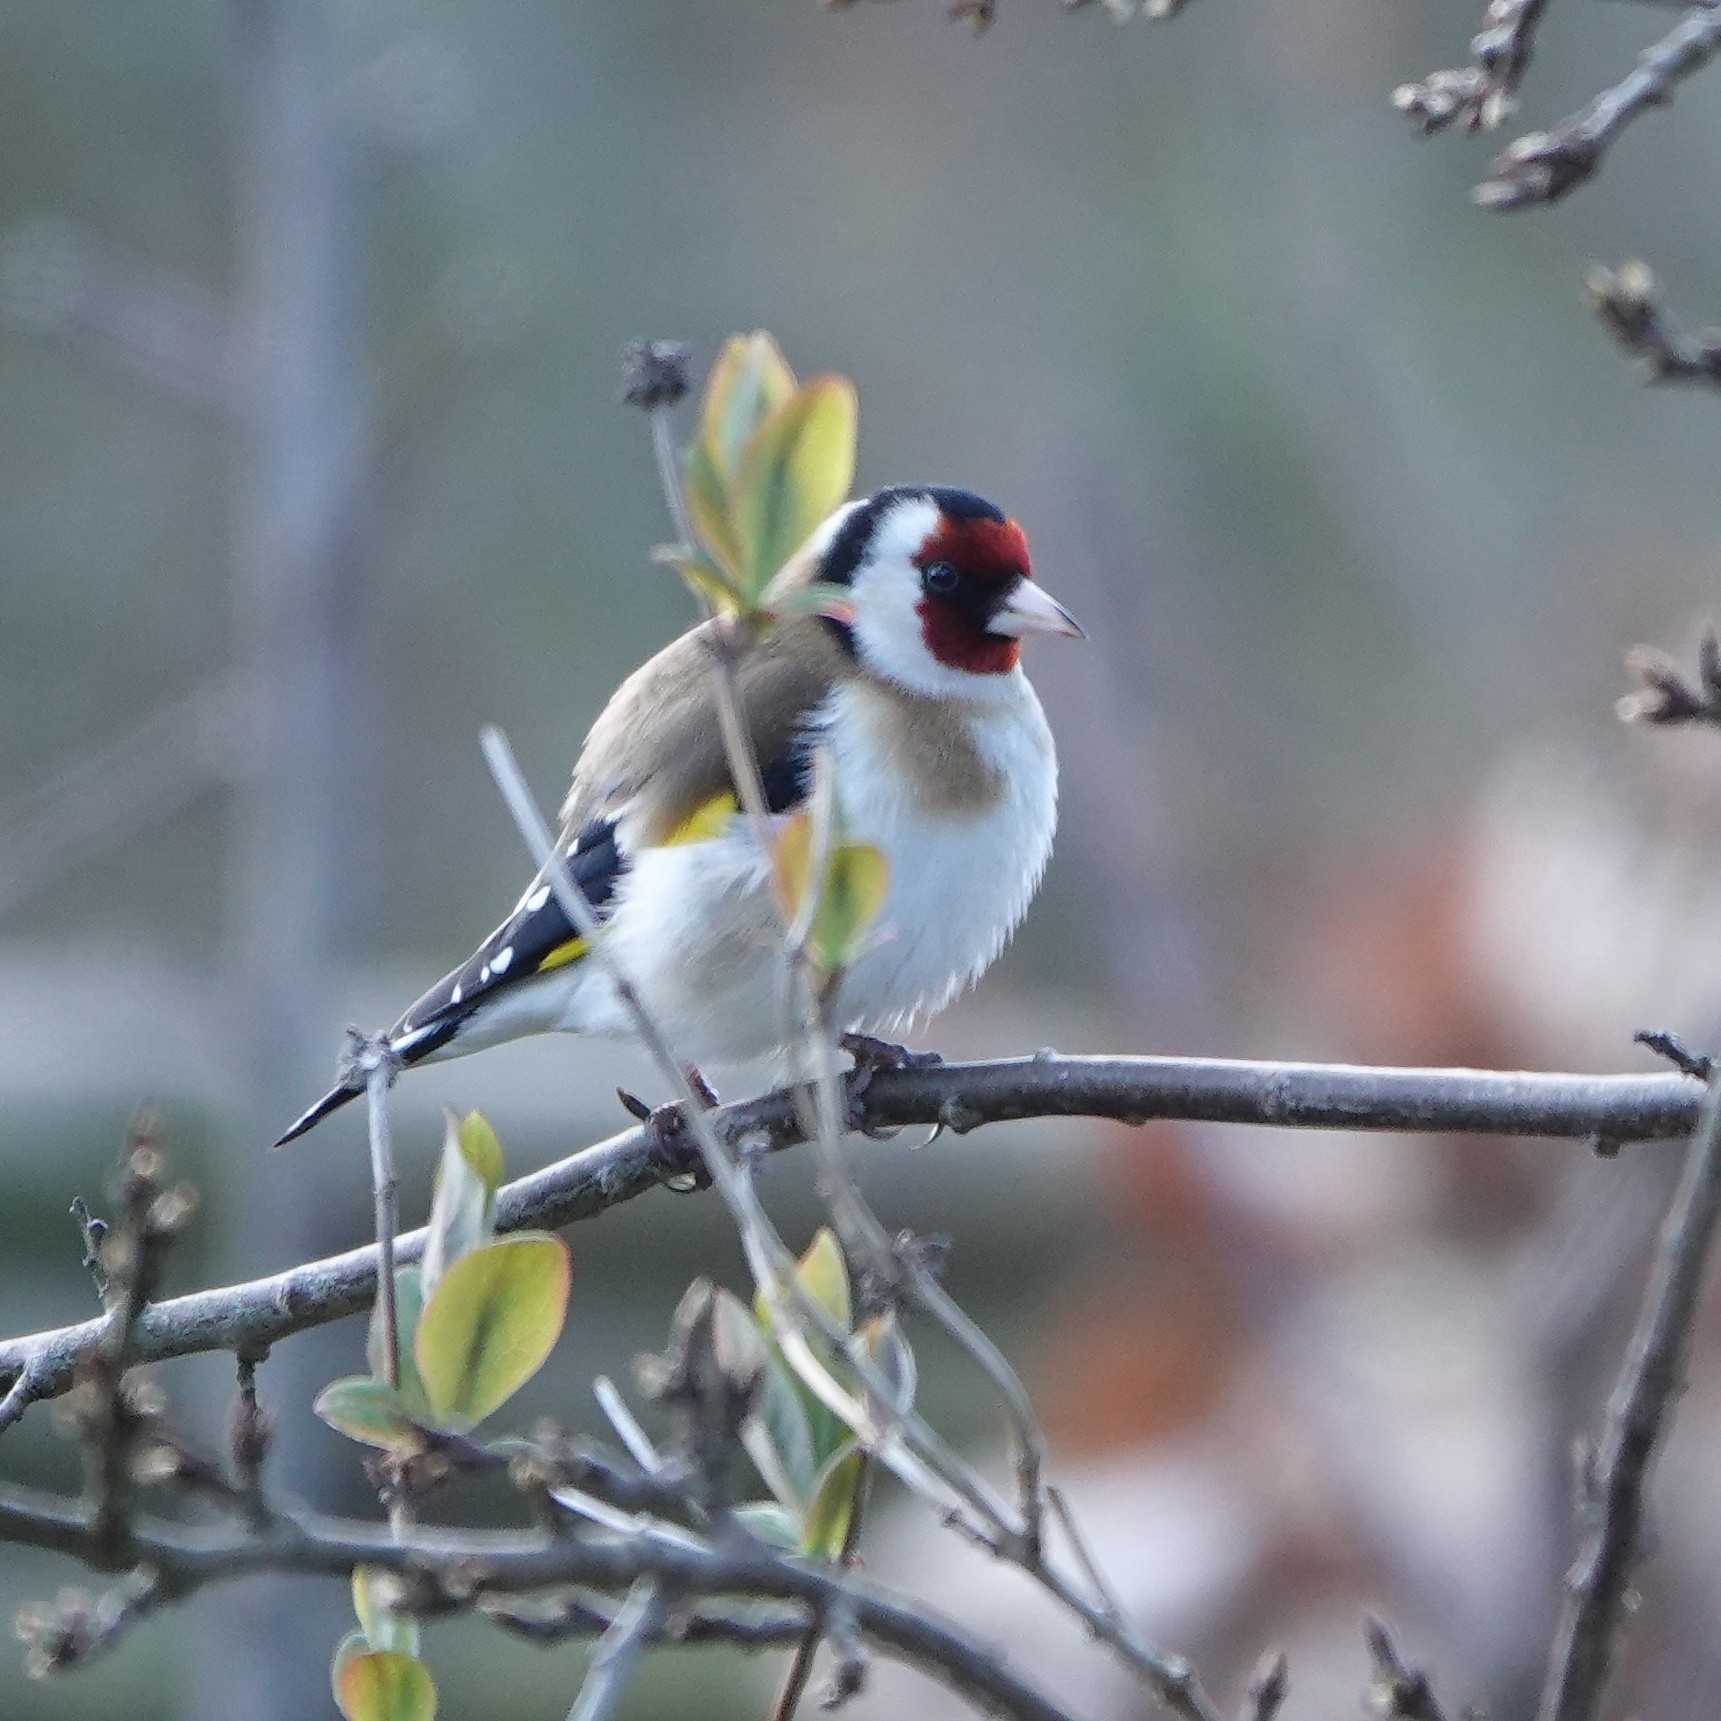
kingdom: Animalia
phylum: Chordata
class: Aves
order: Passeriformes
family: Fringillidae
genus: Carduelis
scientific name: Carduelis carduelis
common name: European goldfinch
